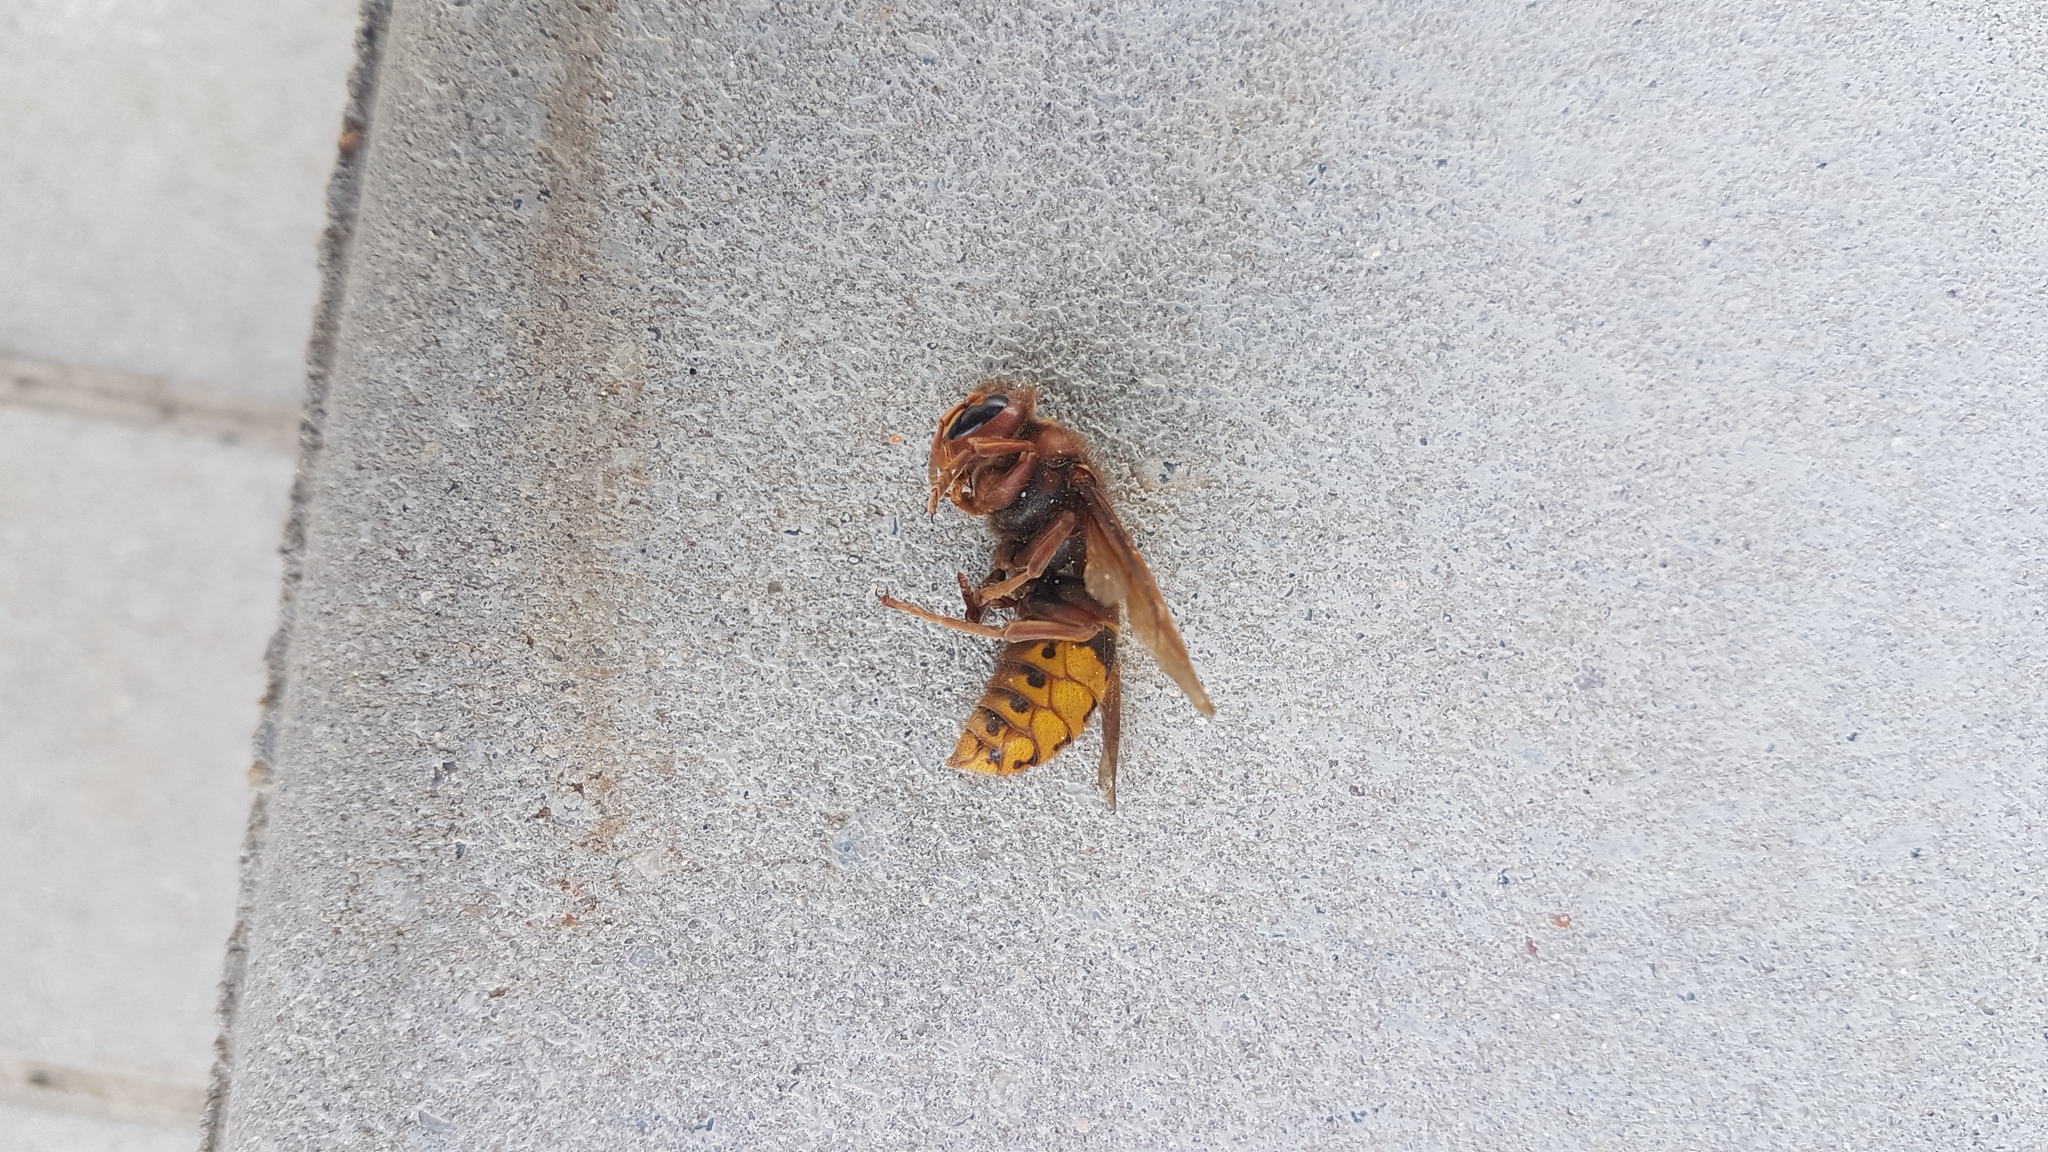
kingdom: Animalia
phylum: Arthropoda
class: Insecta
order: Hymenoptera
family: Vespidae
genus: Vespa
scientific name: Vespa crabro
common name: Hornet
